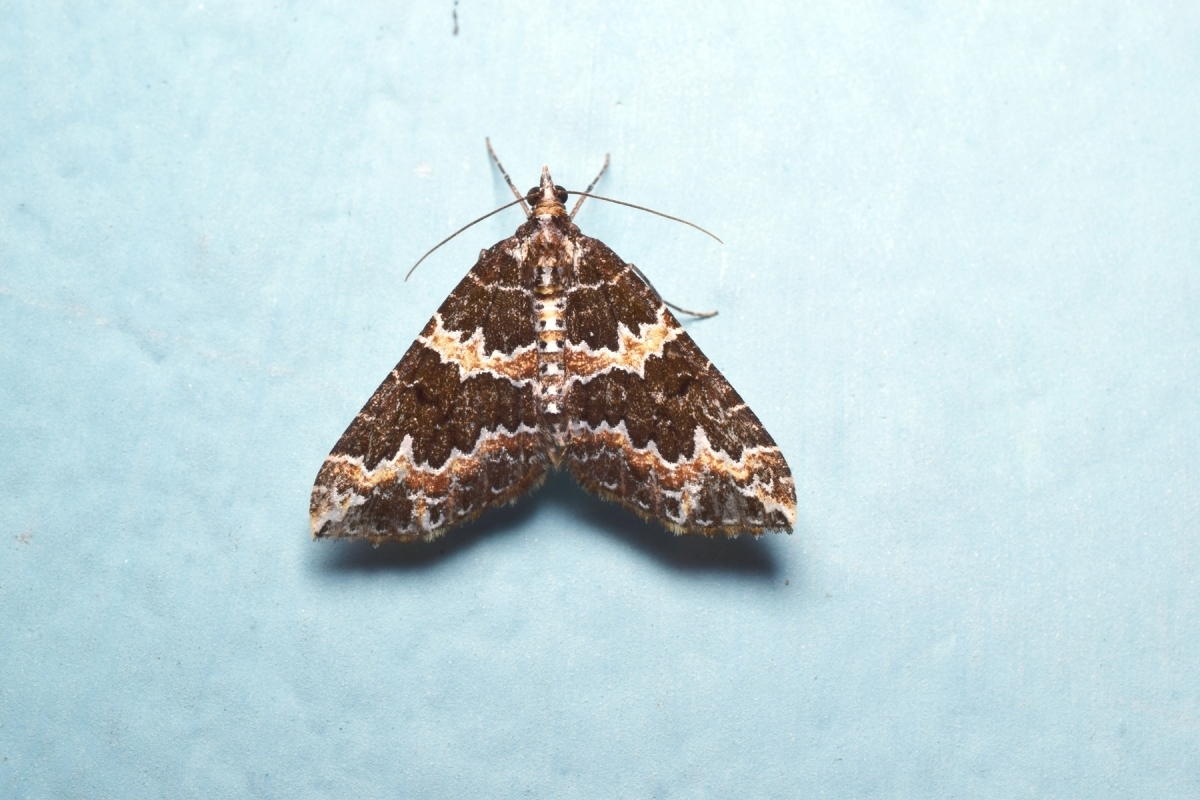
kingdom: Animalia
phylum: Arthropoda
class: Insecta
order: Lepidoptera
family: Geometridae
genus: Electrophaes
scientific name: Electrophaes aliena
